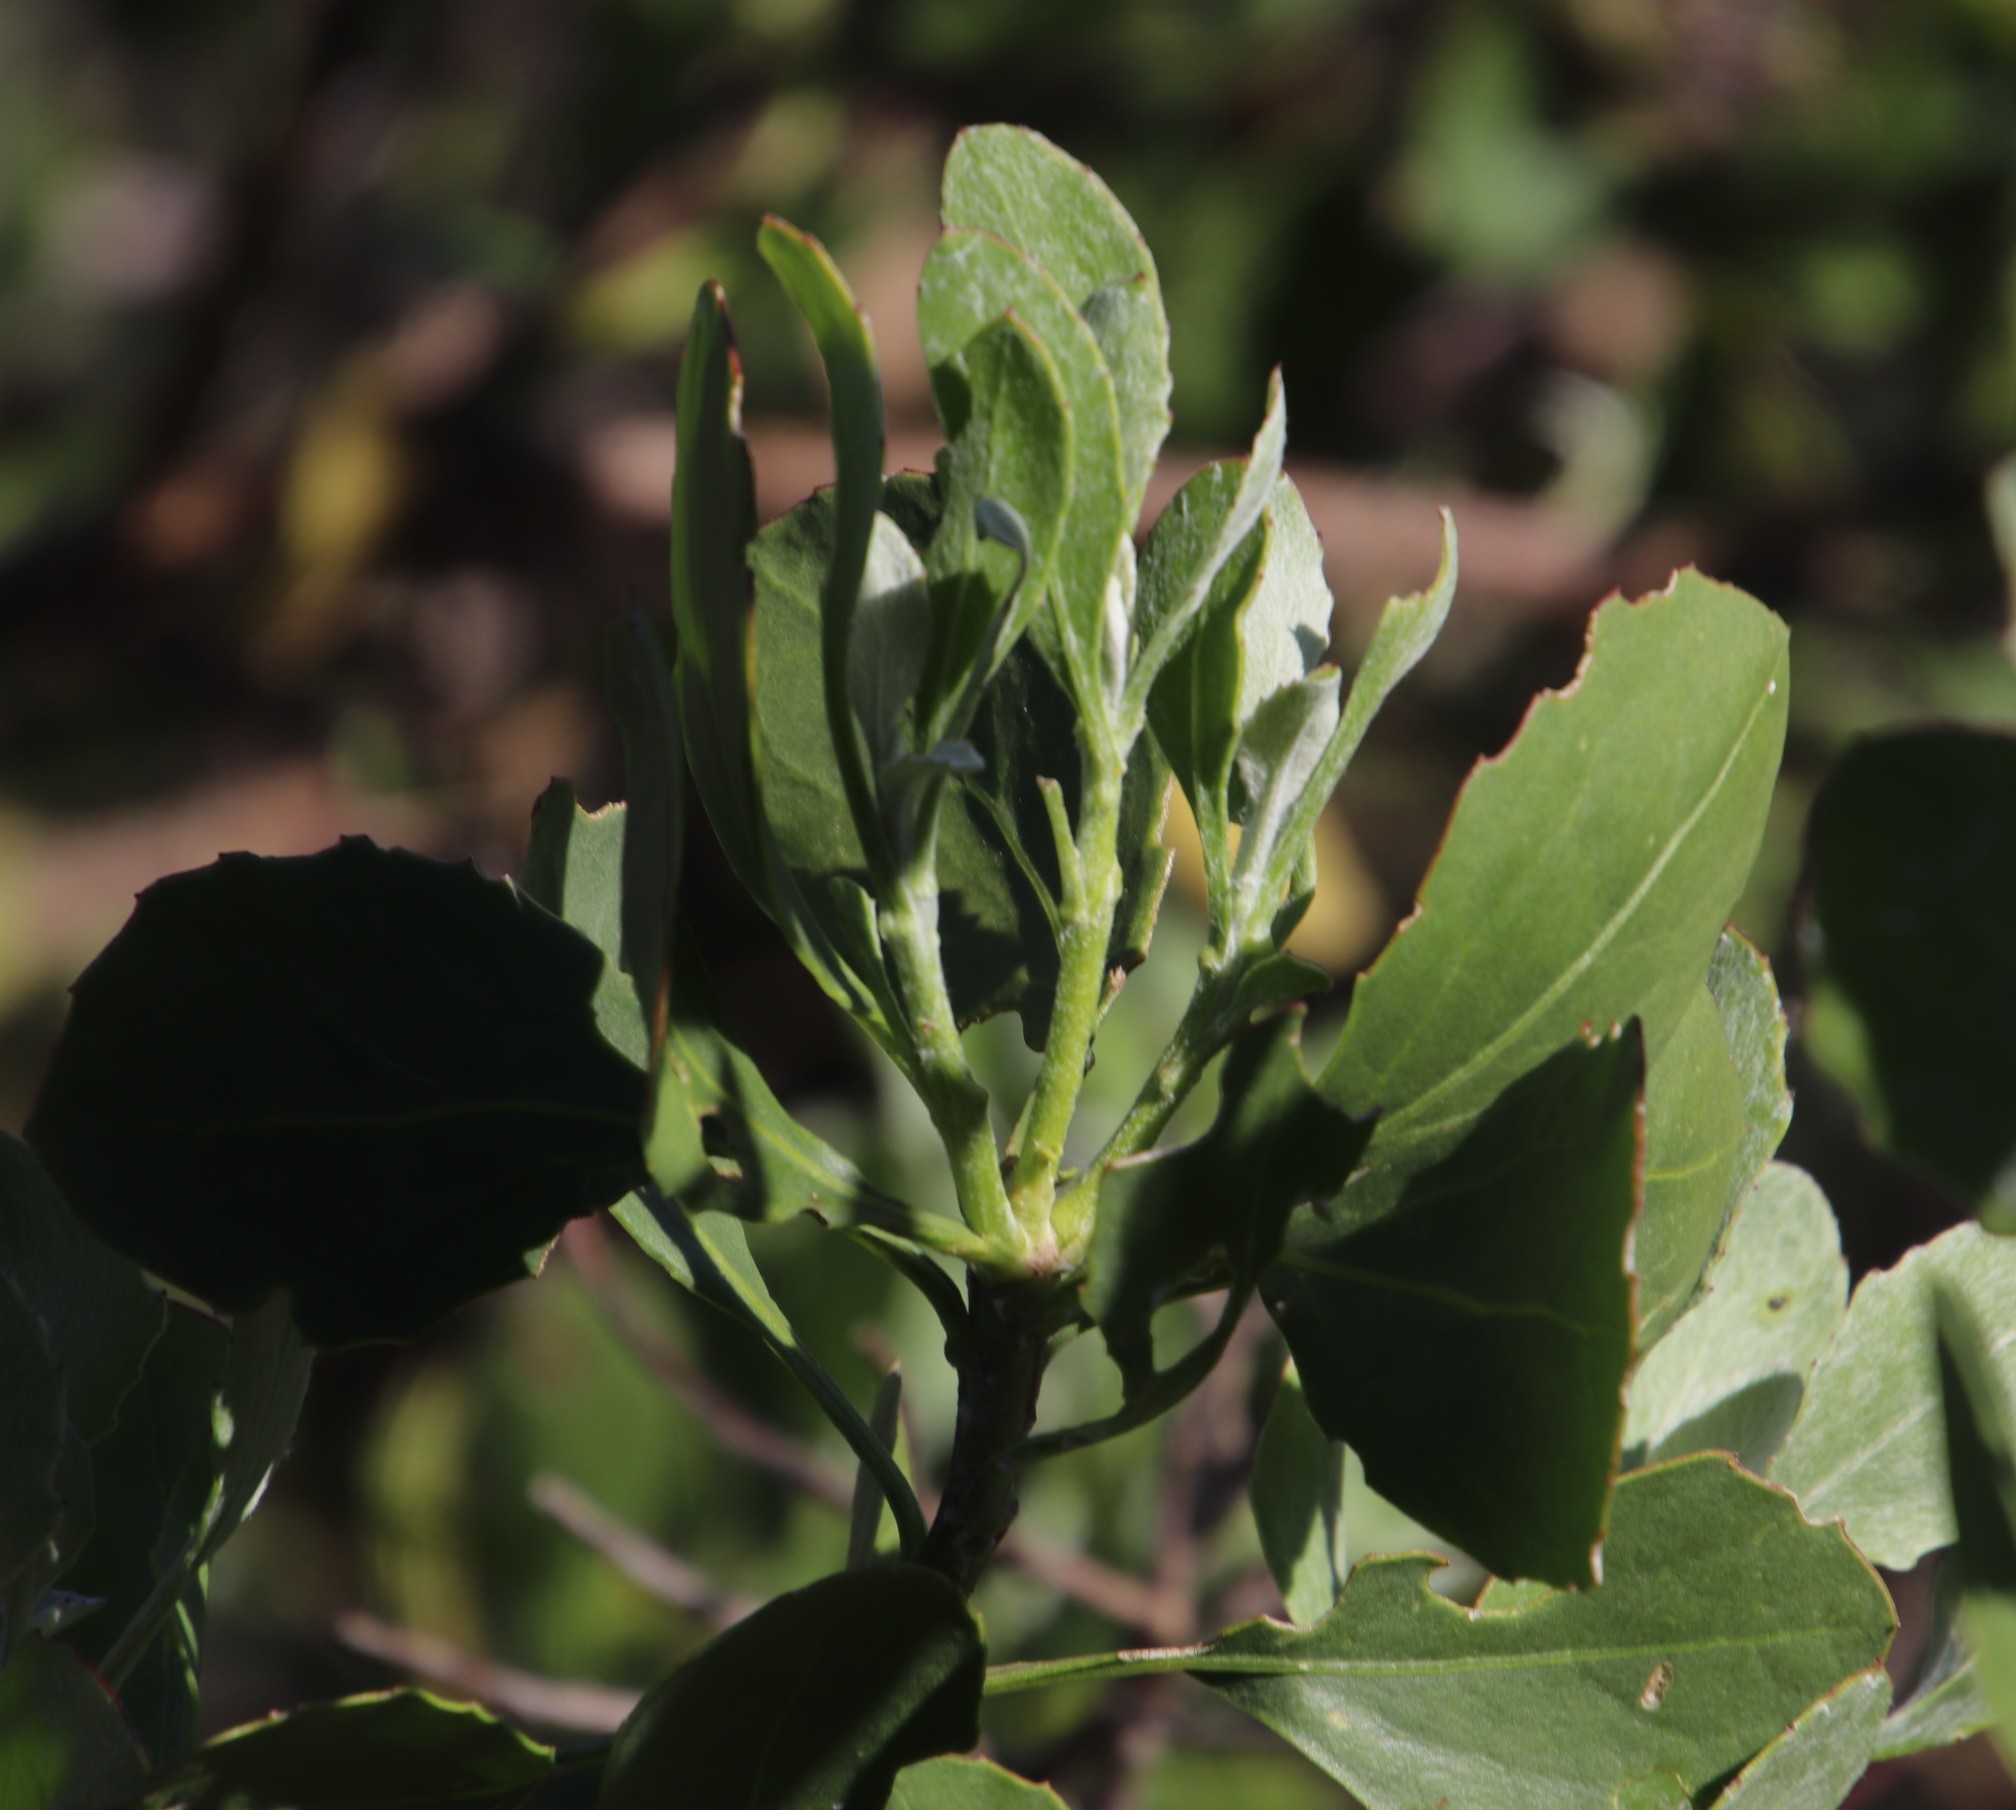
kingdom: Plantae
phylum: Tracheophyta
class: Magnoliopsida
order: Asterales
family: Asteraceae
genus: Osteospermum
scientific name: Osteospermum moniliferum
